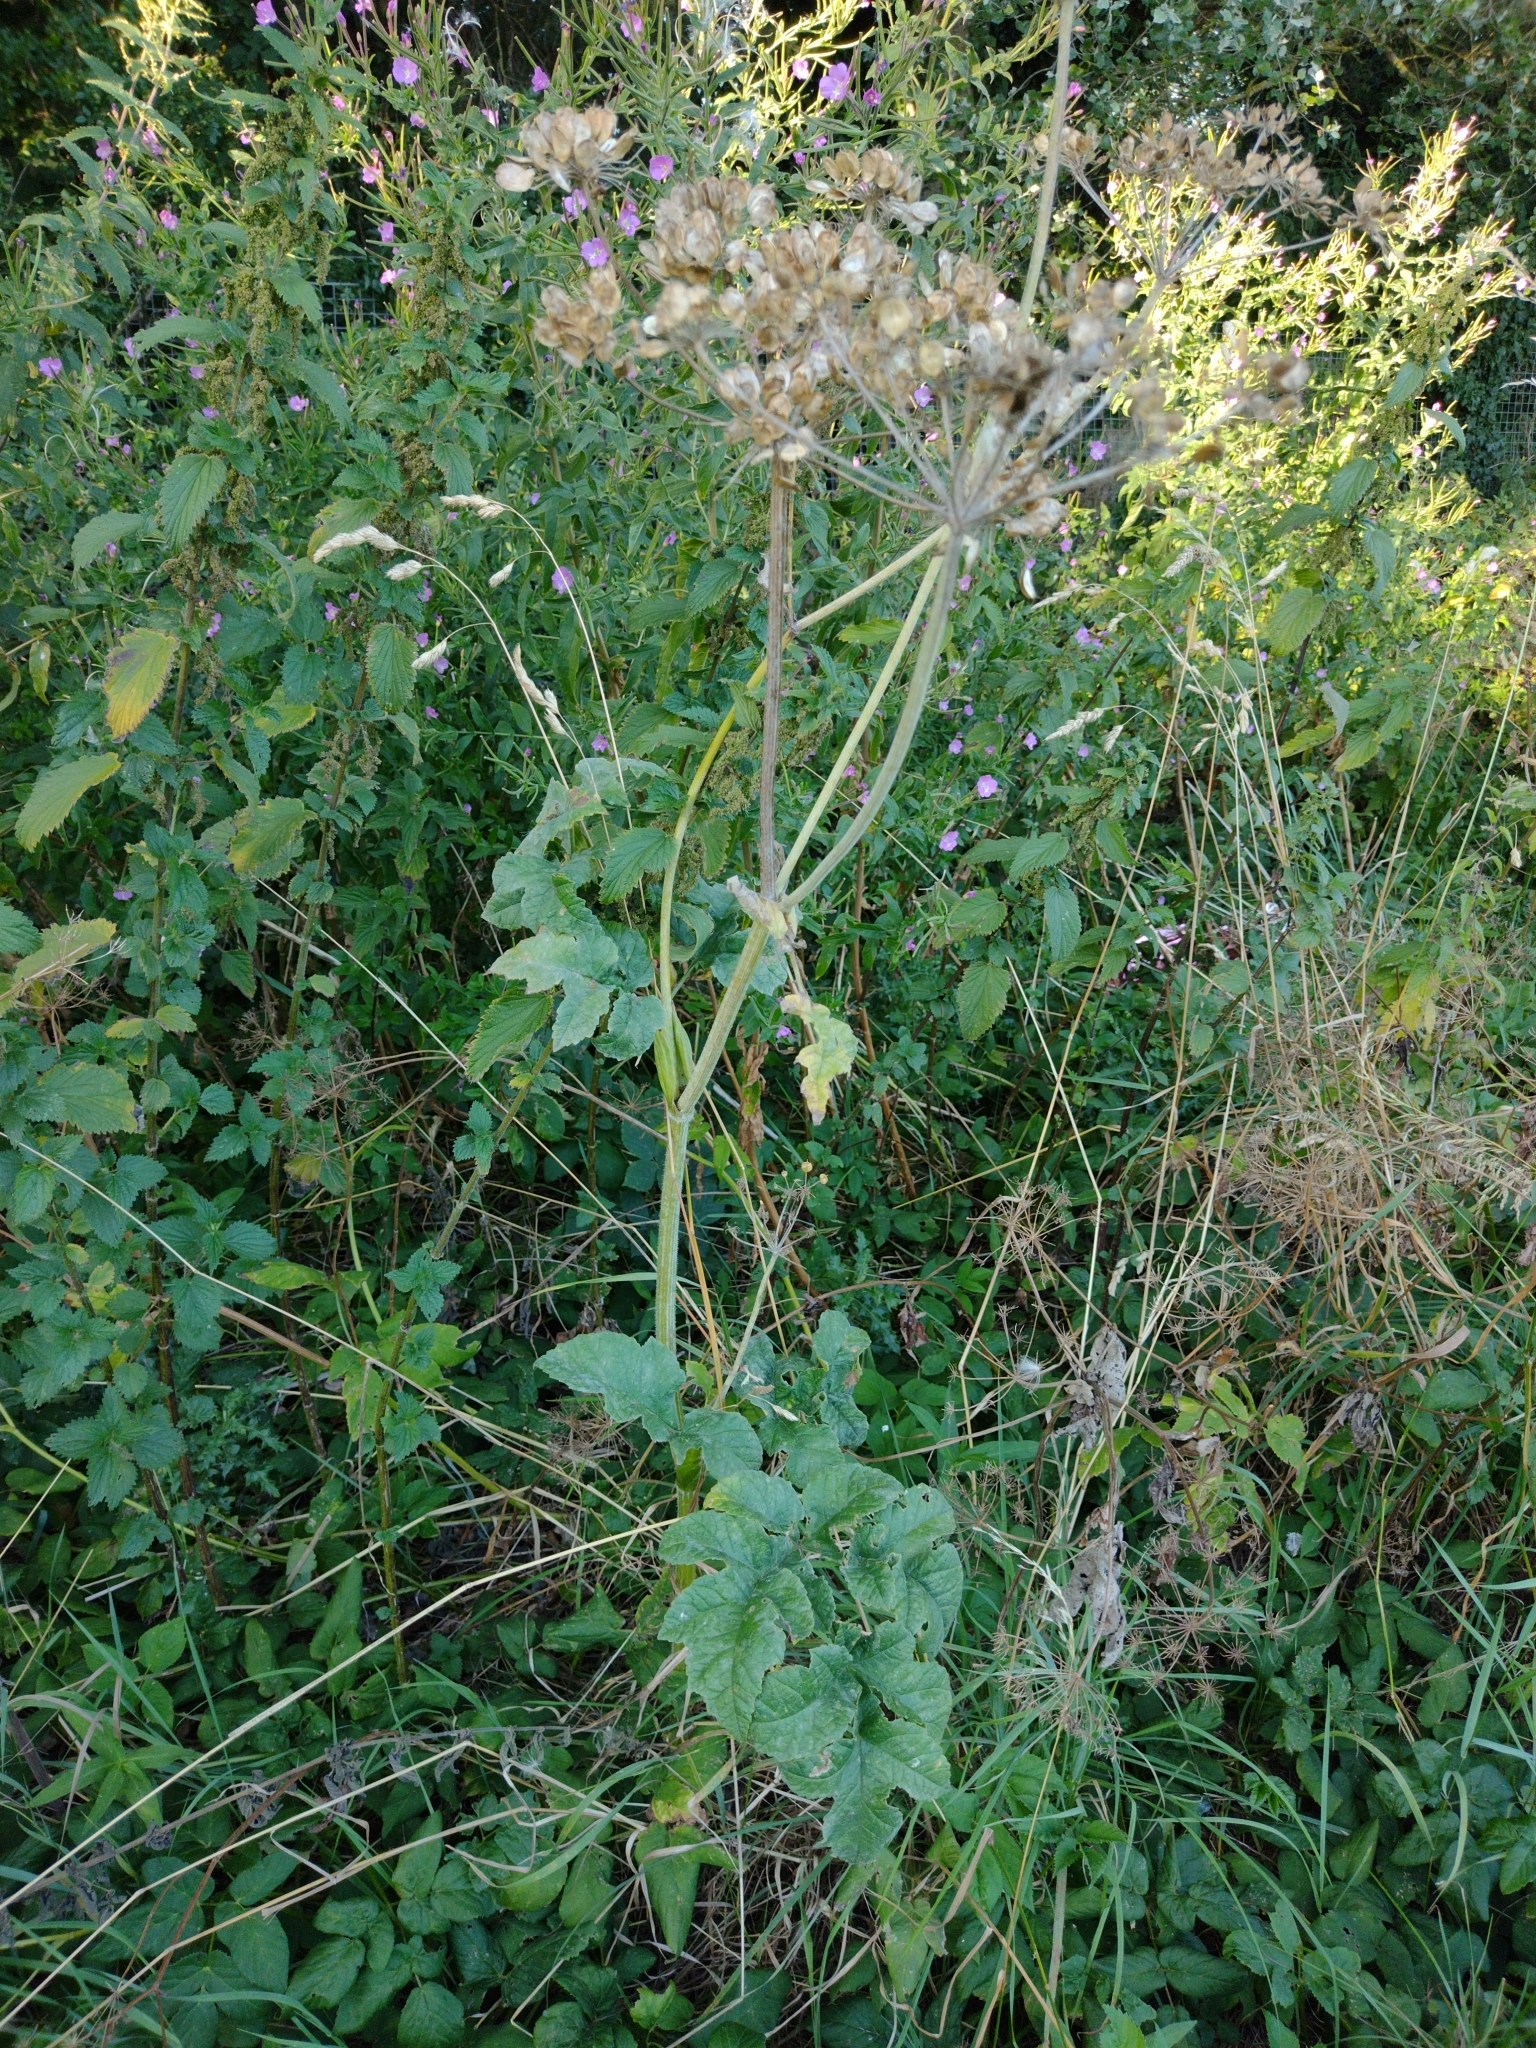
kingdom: Plantae
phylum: Tracheophyta
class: Magnoliopsida
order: Apiales
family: Apiaceae
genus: Heracleum
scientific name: Heracleum sphondylium
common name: Hogweed
